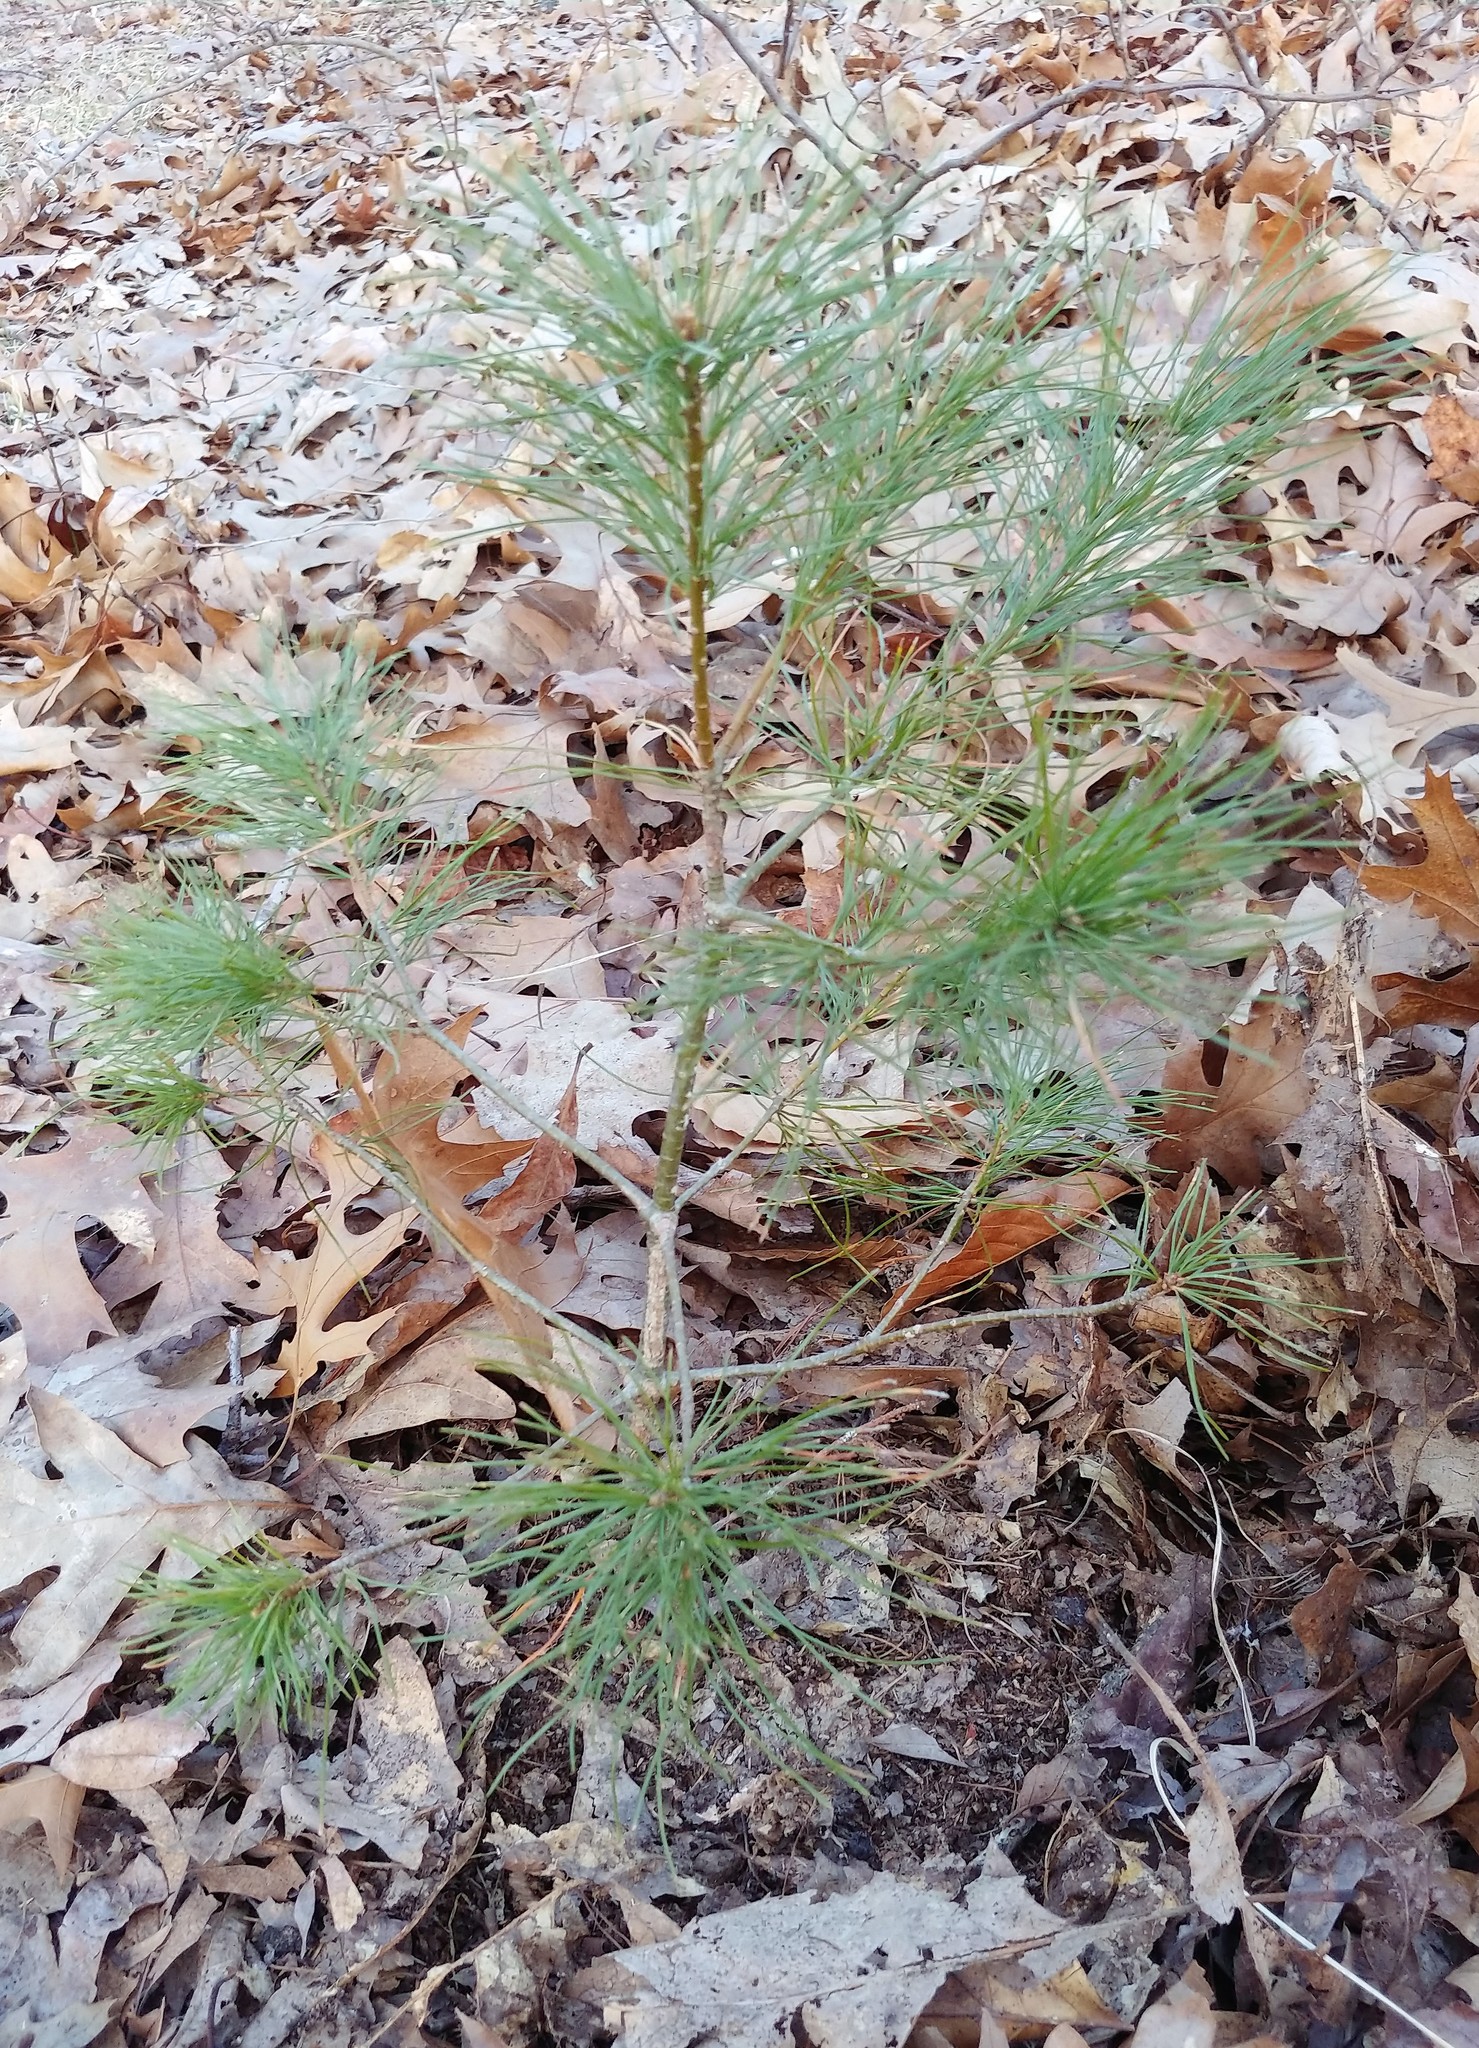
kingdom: Plantae
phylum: Tracheophyta
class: Pinopsida
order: Pinales
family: Pinaceae
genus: Pinus
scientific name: Pinus strobus
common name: Weymouth pine
